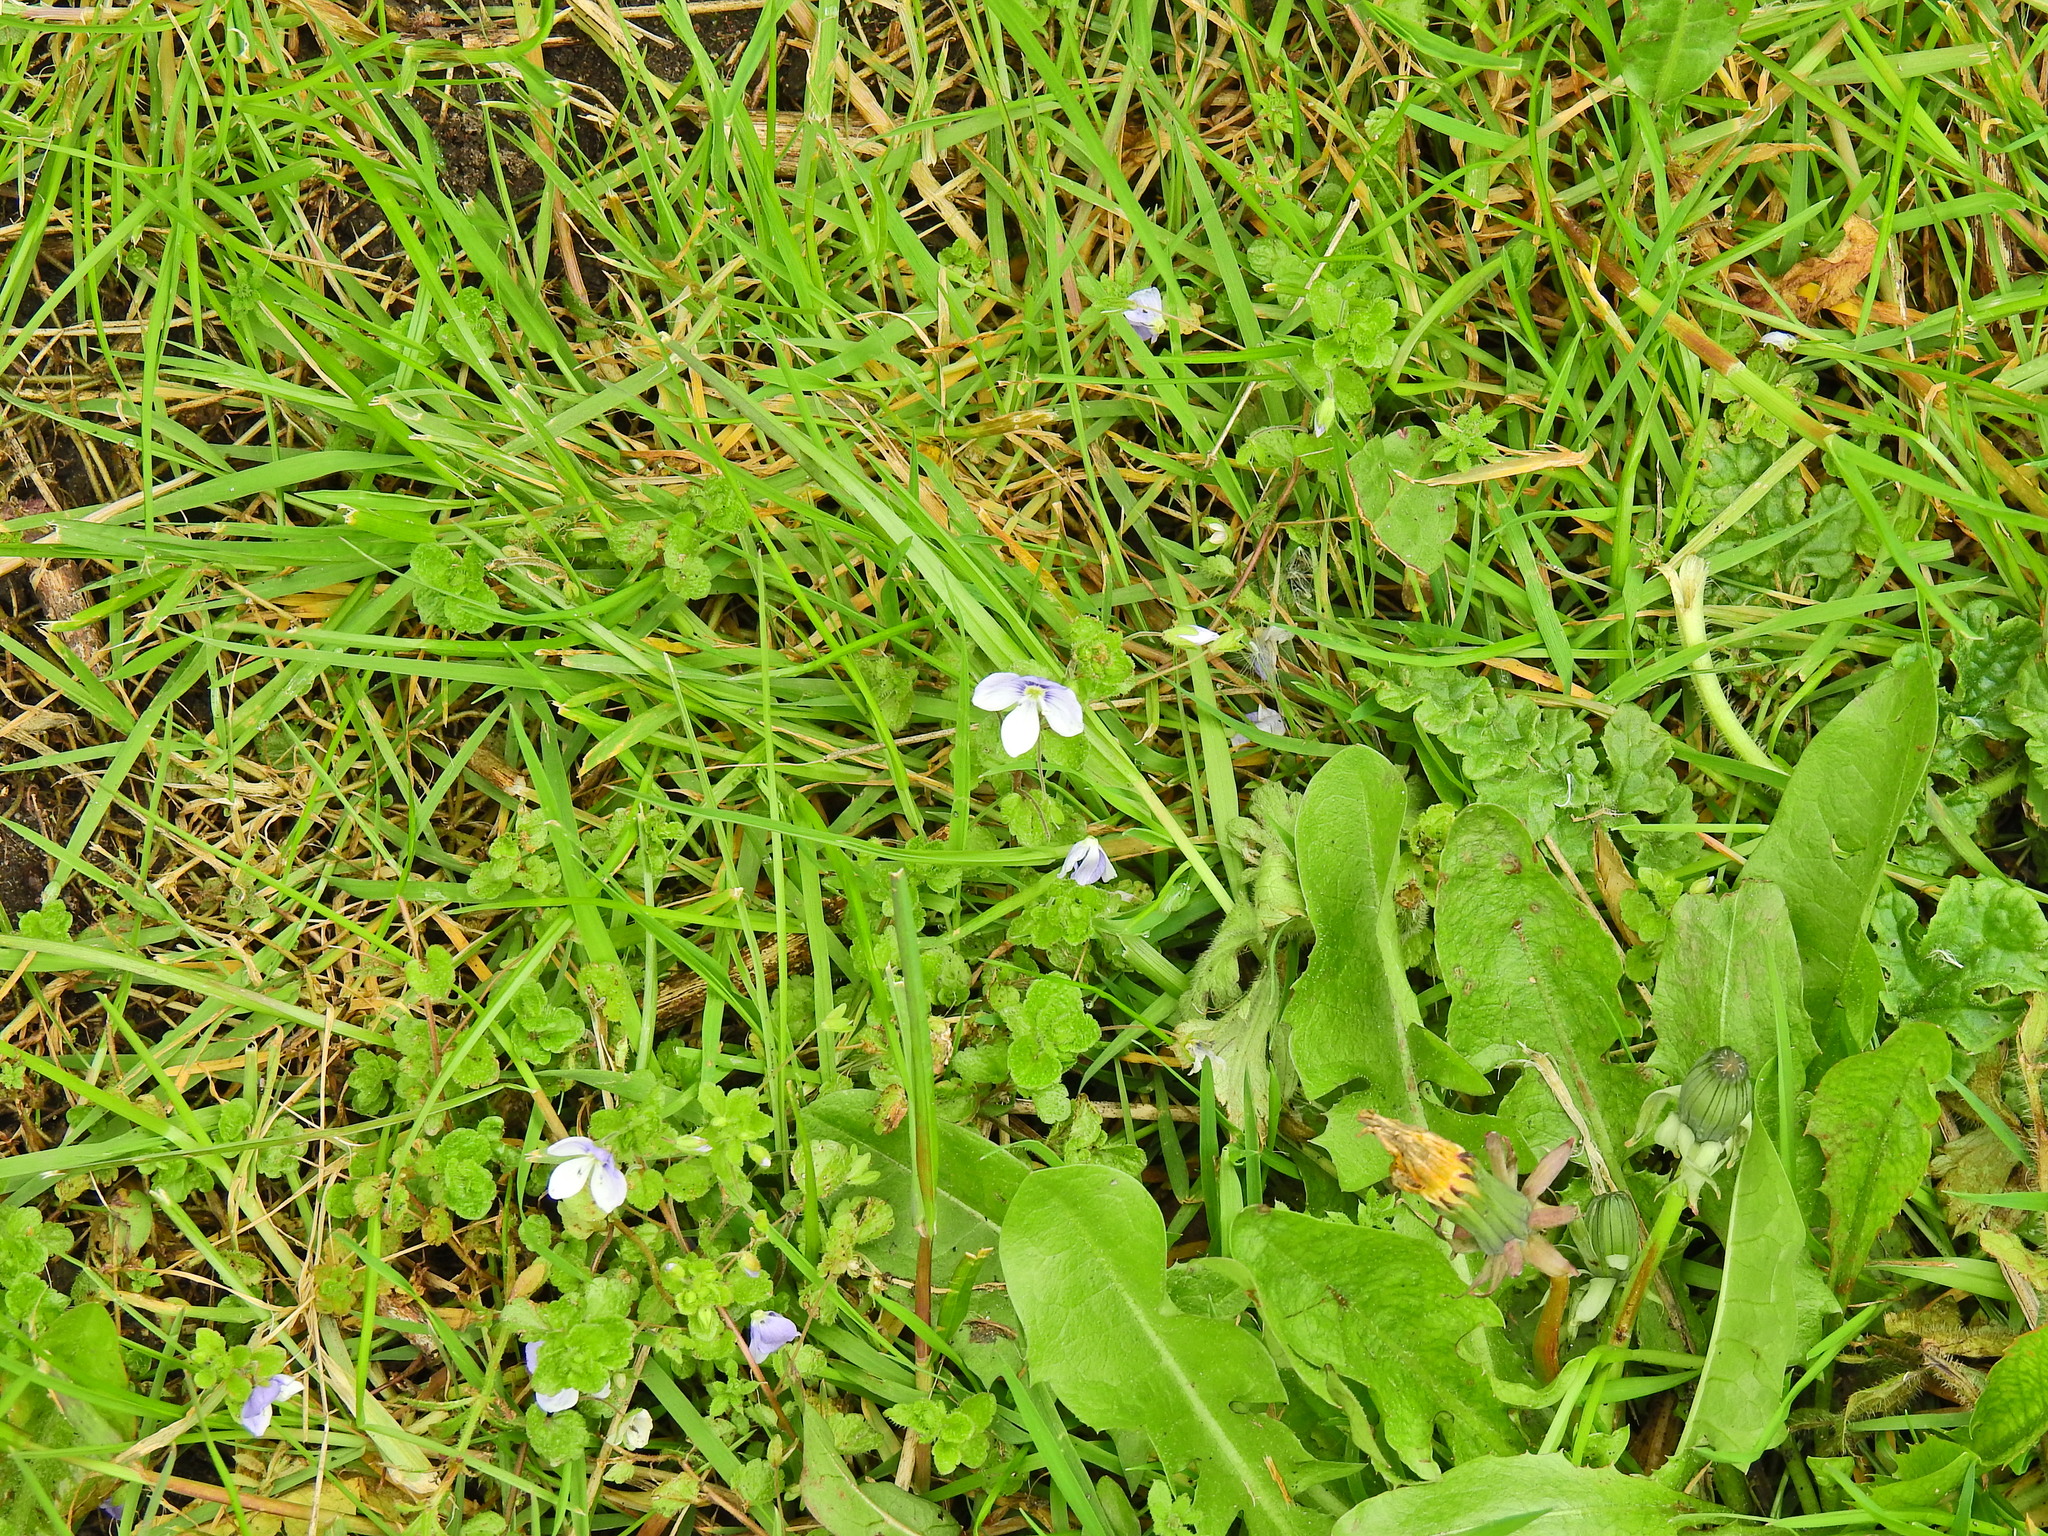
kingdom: Plantae
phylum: Tracheophyta
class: Magnoliopsida
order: Lamiales
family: Plantaginaceae
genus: Veronica
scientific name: Veronica filiformis
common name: Slender speedwell
